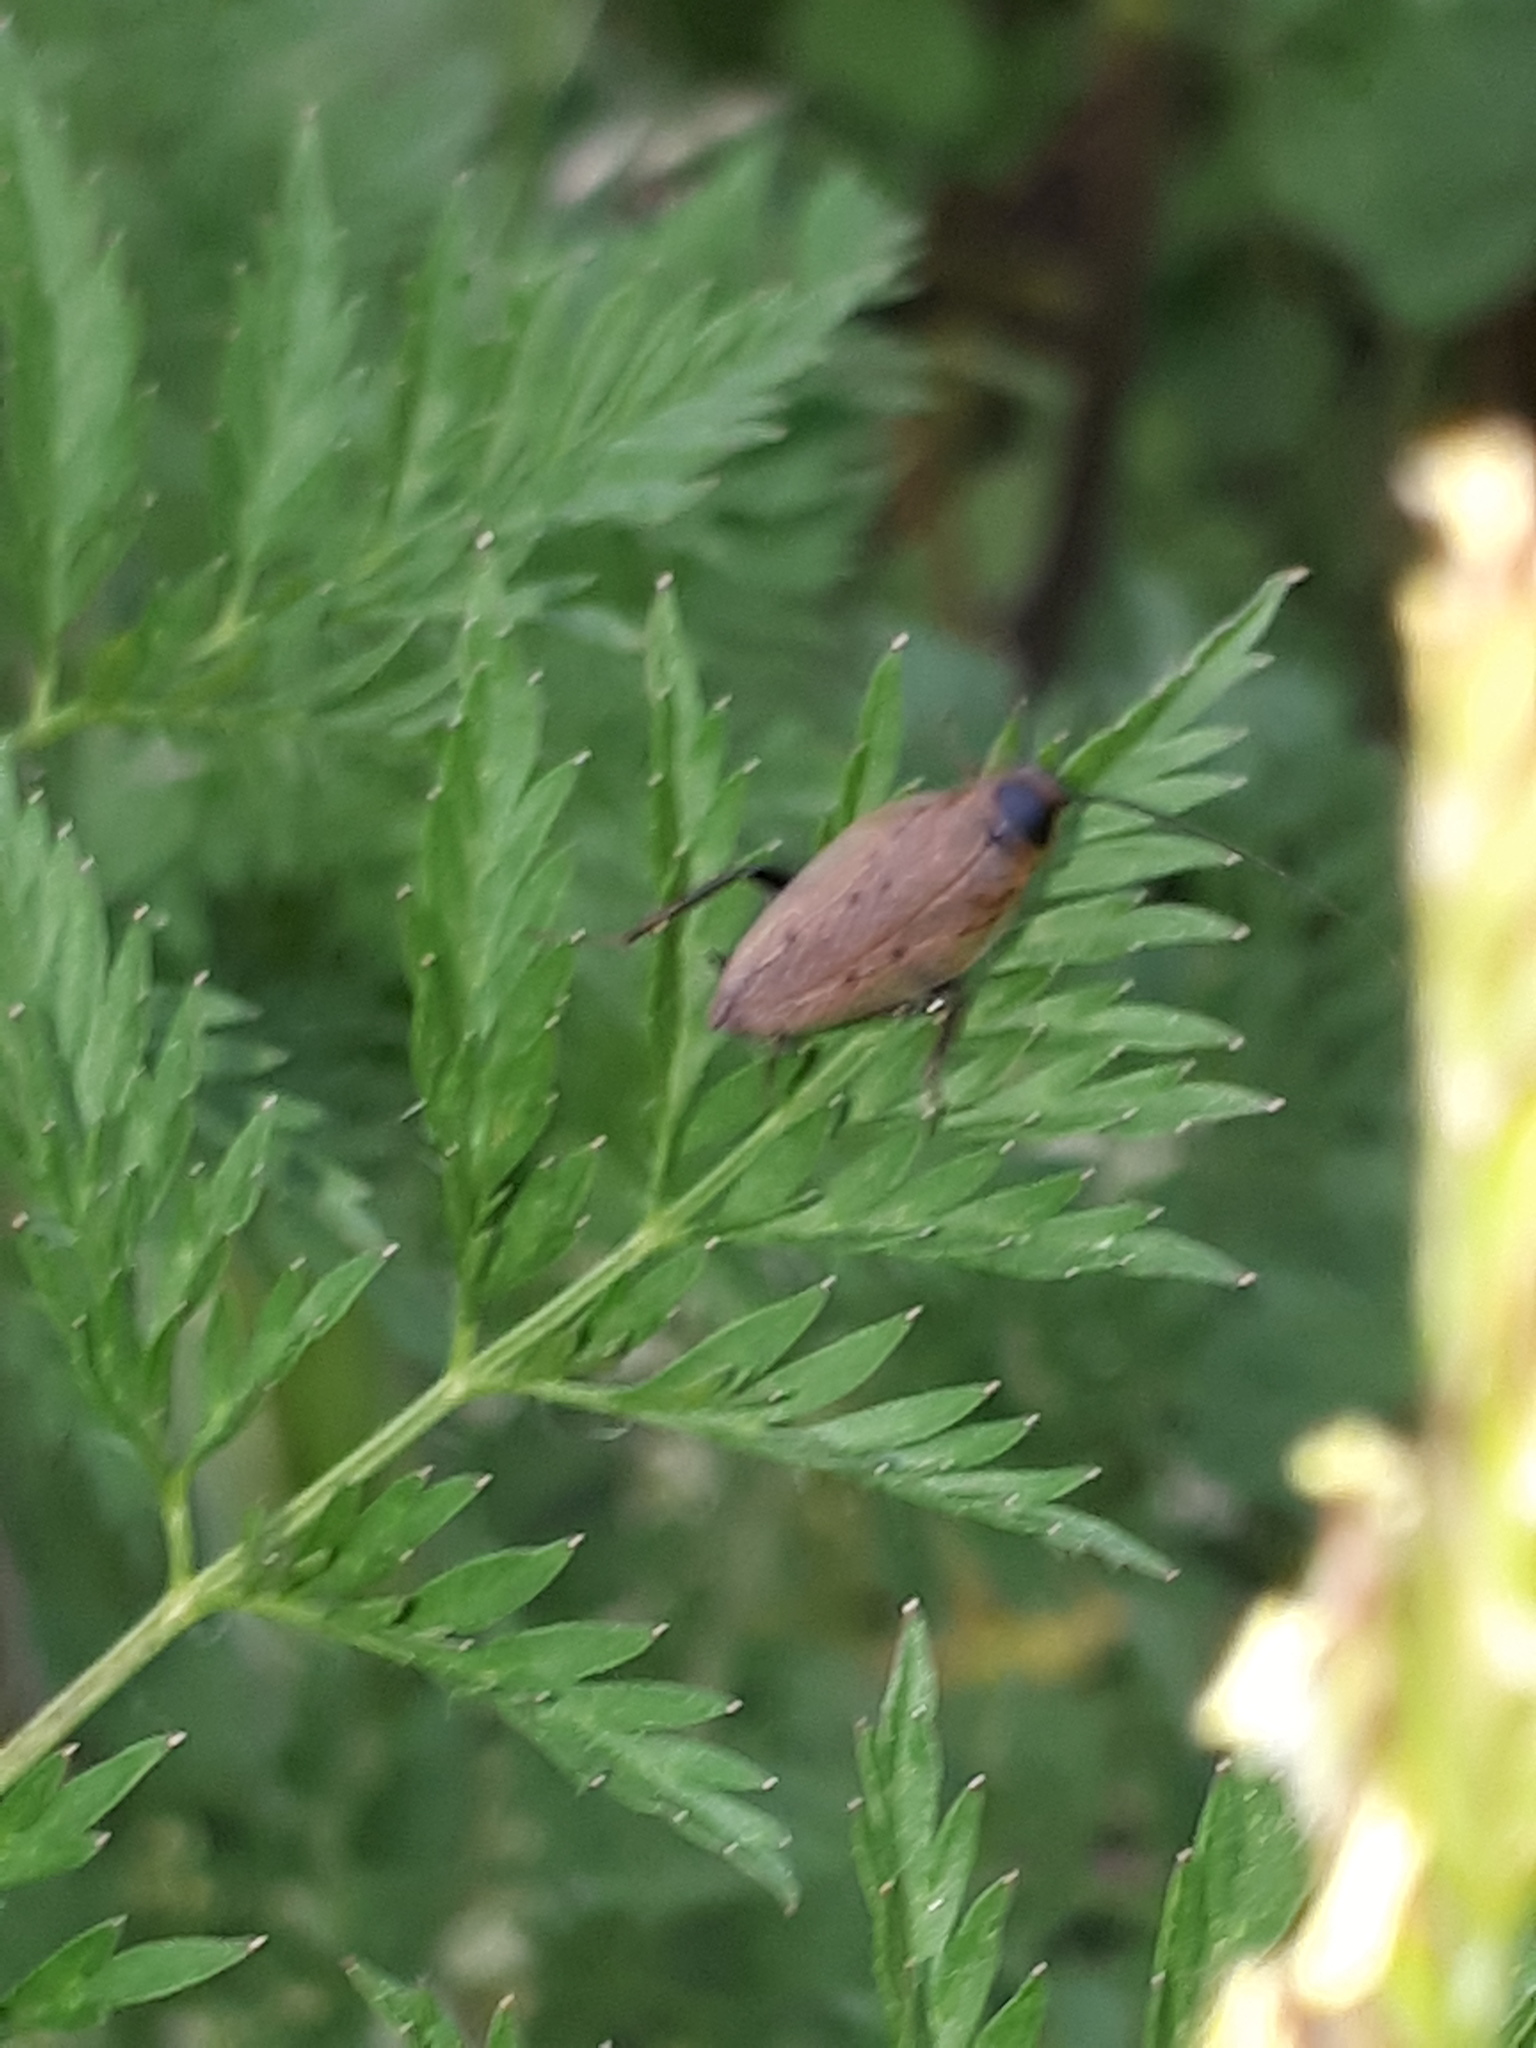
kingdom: Animalia
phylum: Arthropoda
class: Insecta
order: Blattodea
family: Ectobiidae
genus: Ectobius
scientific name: Ectobius lapponicus
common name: Dusky cockroach
